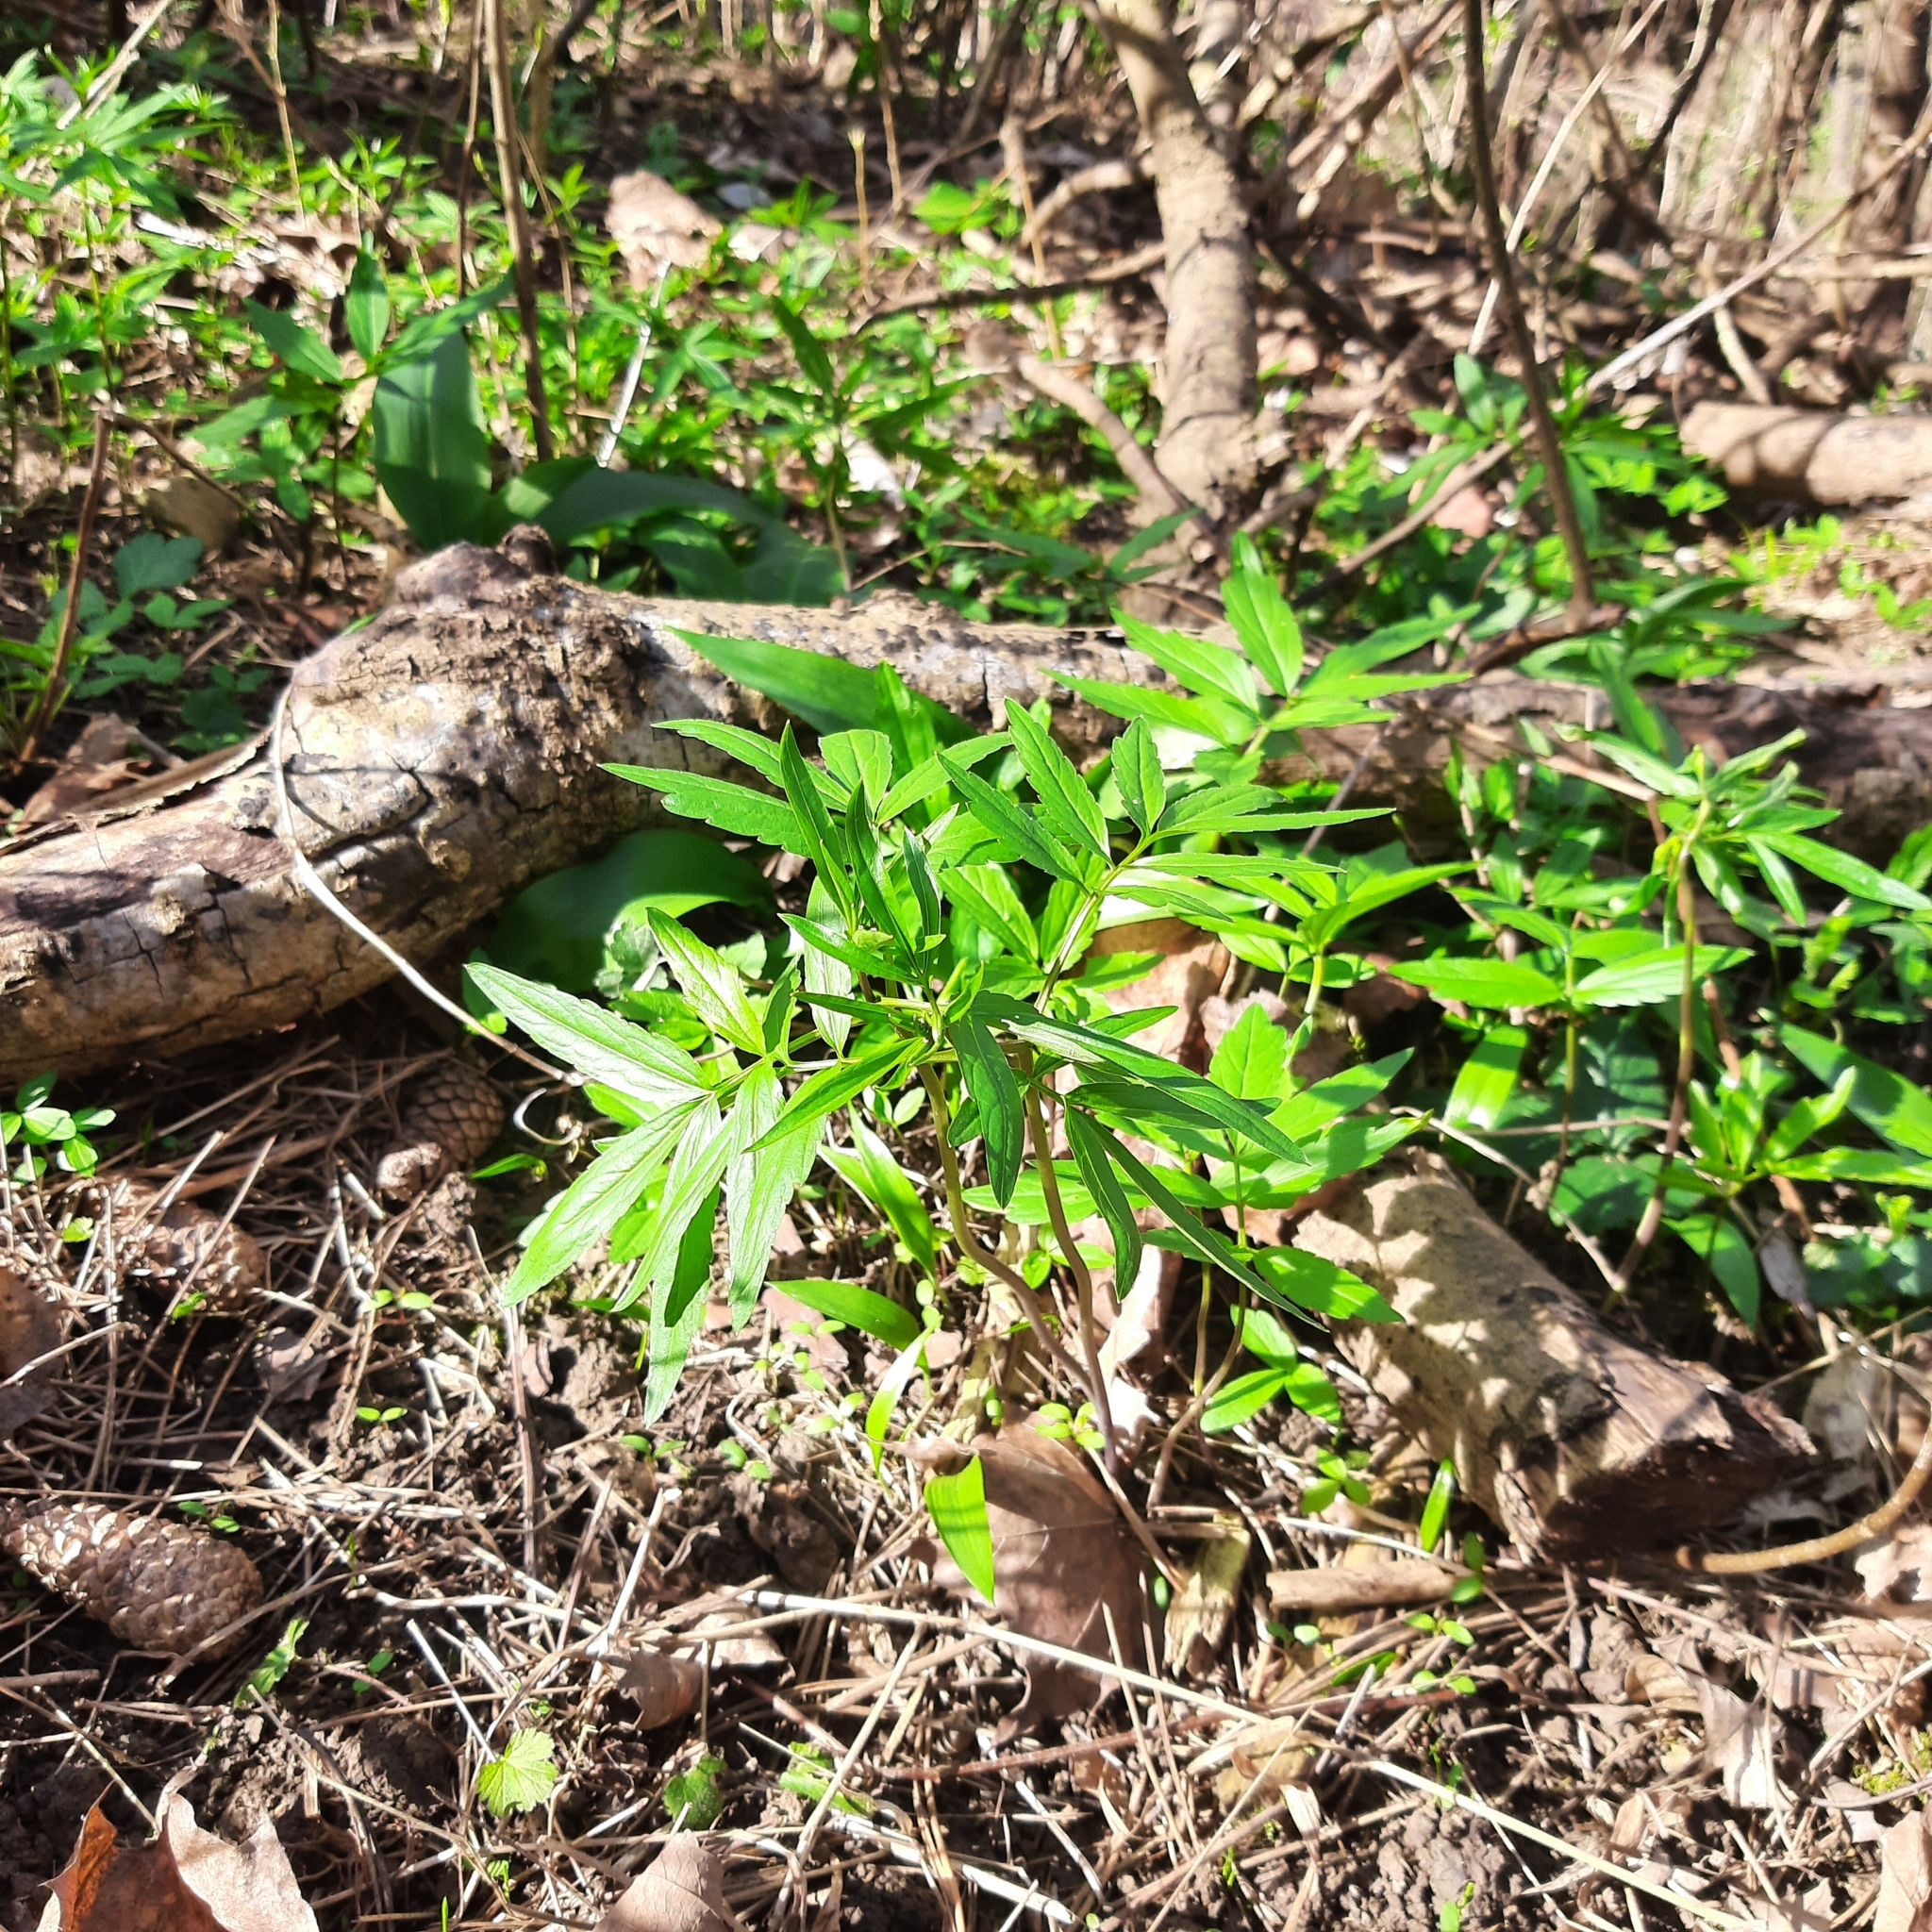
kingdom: Plantae
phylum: Tracheophyta
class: Magnoliopsida
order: Brassicales
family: Brassicaceae
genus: Cardamine
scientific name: Cardamine bulbifera
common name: Coralroot bittercress
